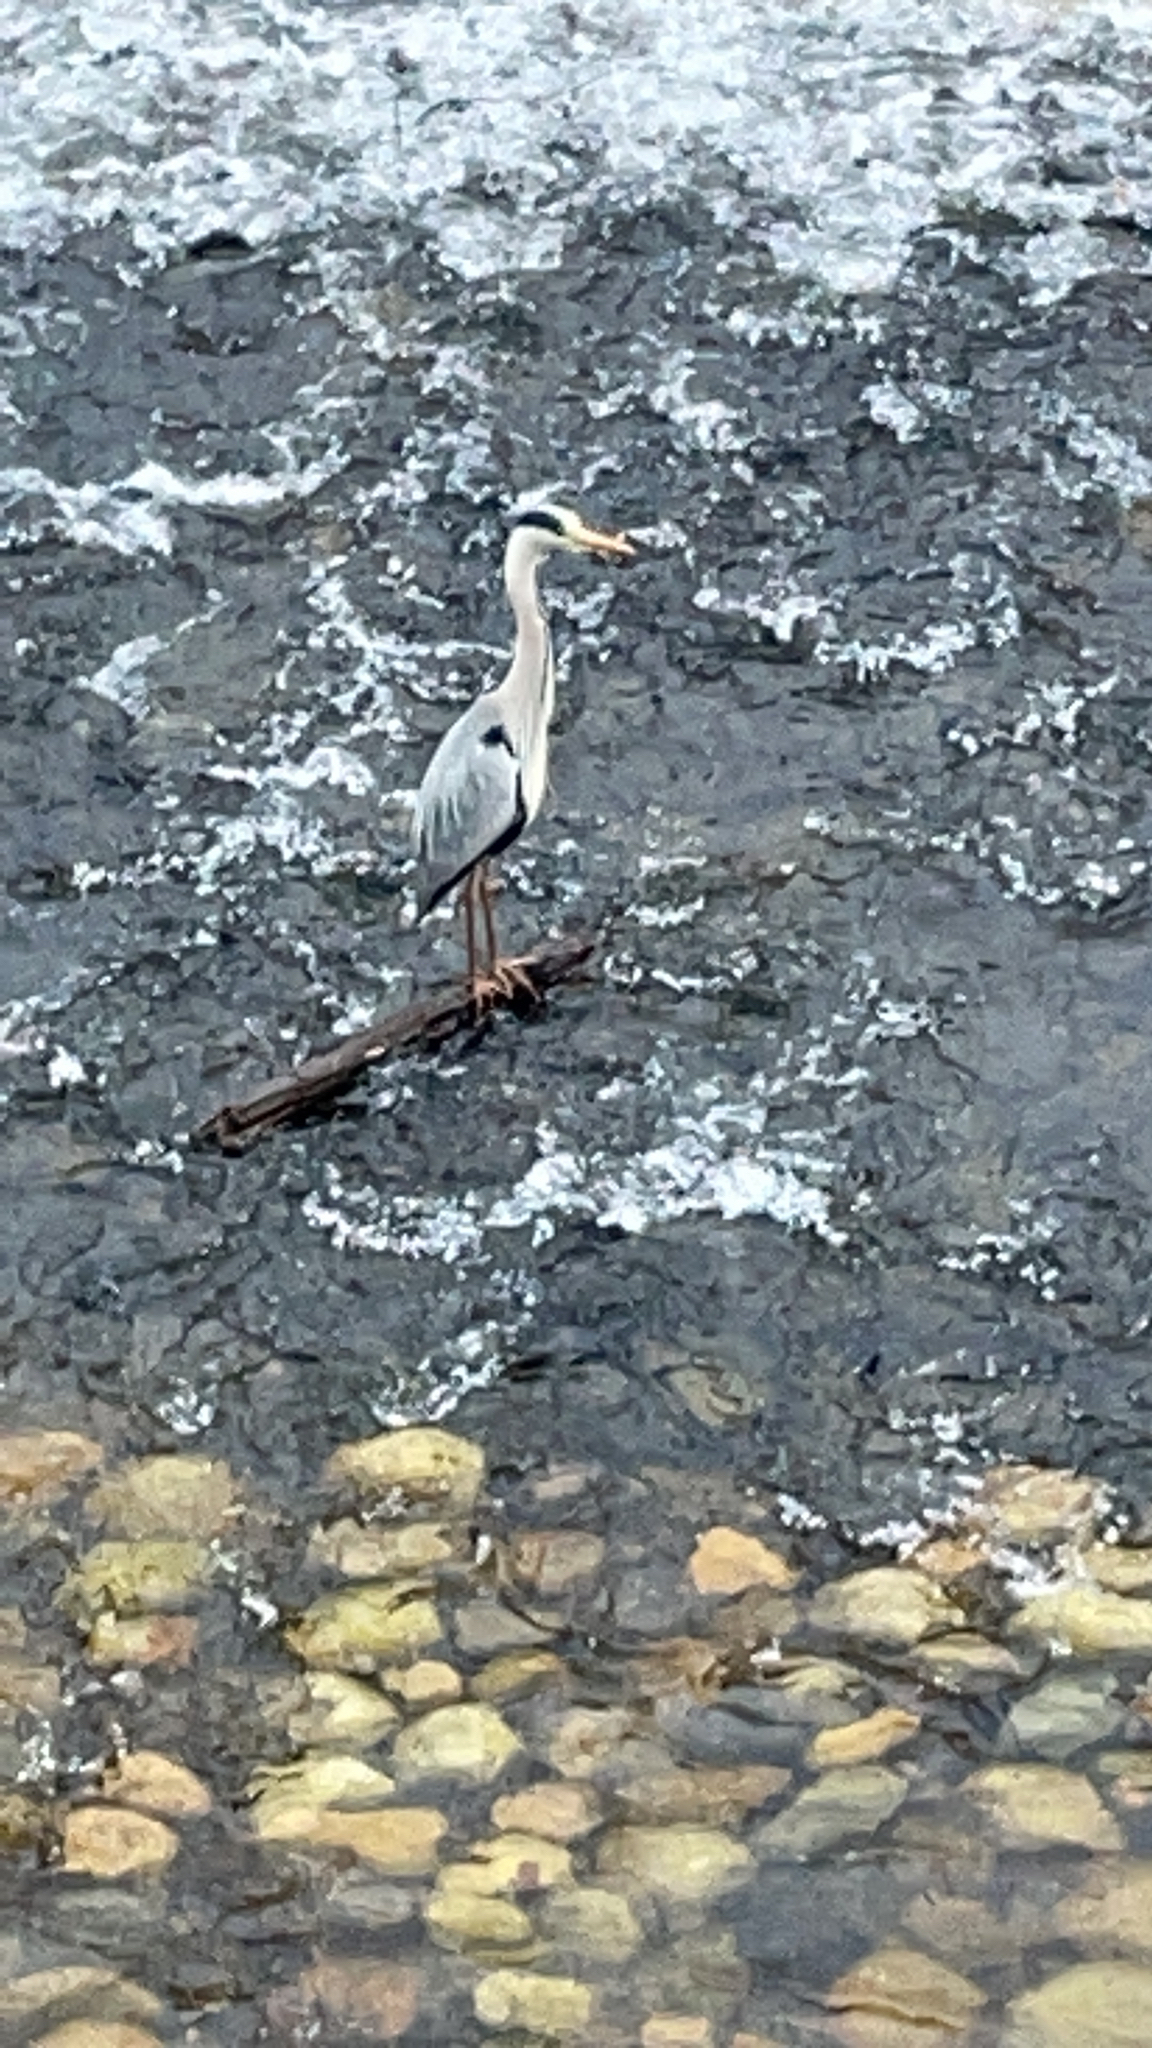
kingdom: Animalia
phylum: Chordata
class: Aves
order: Pelecaniformes
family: Ardeidae
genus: Ardea
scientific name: Ardea cinerea
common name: Grey heron
